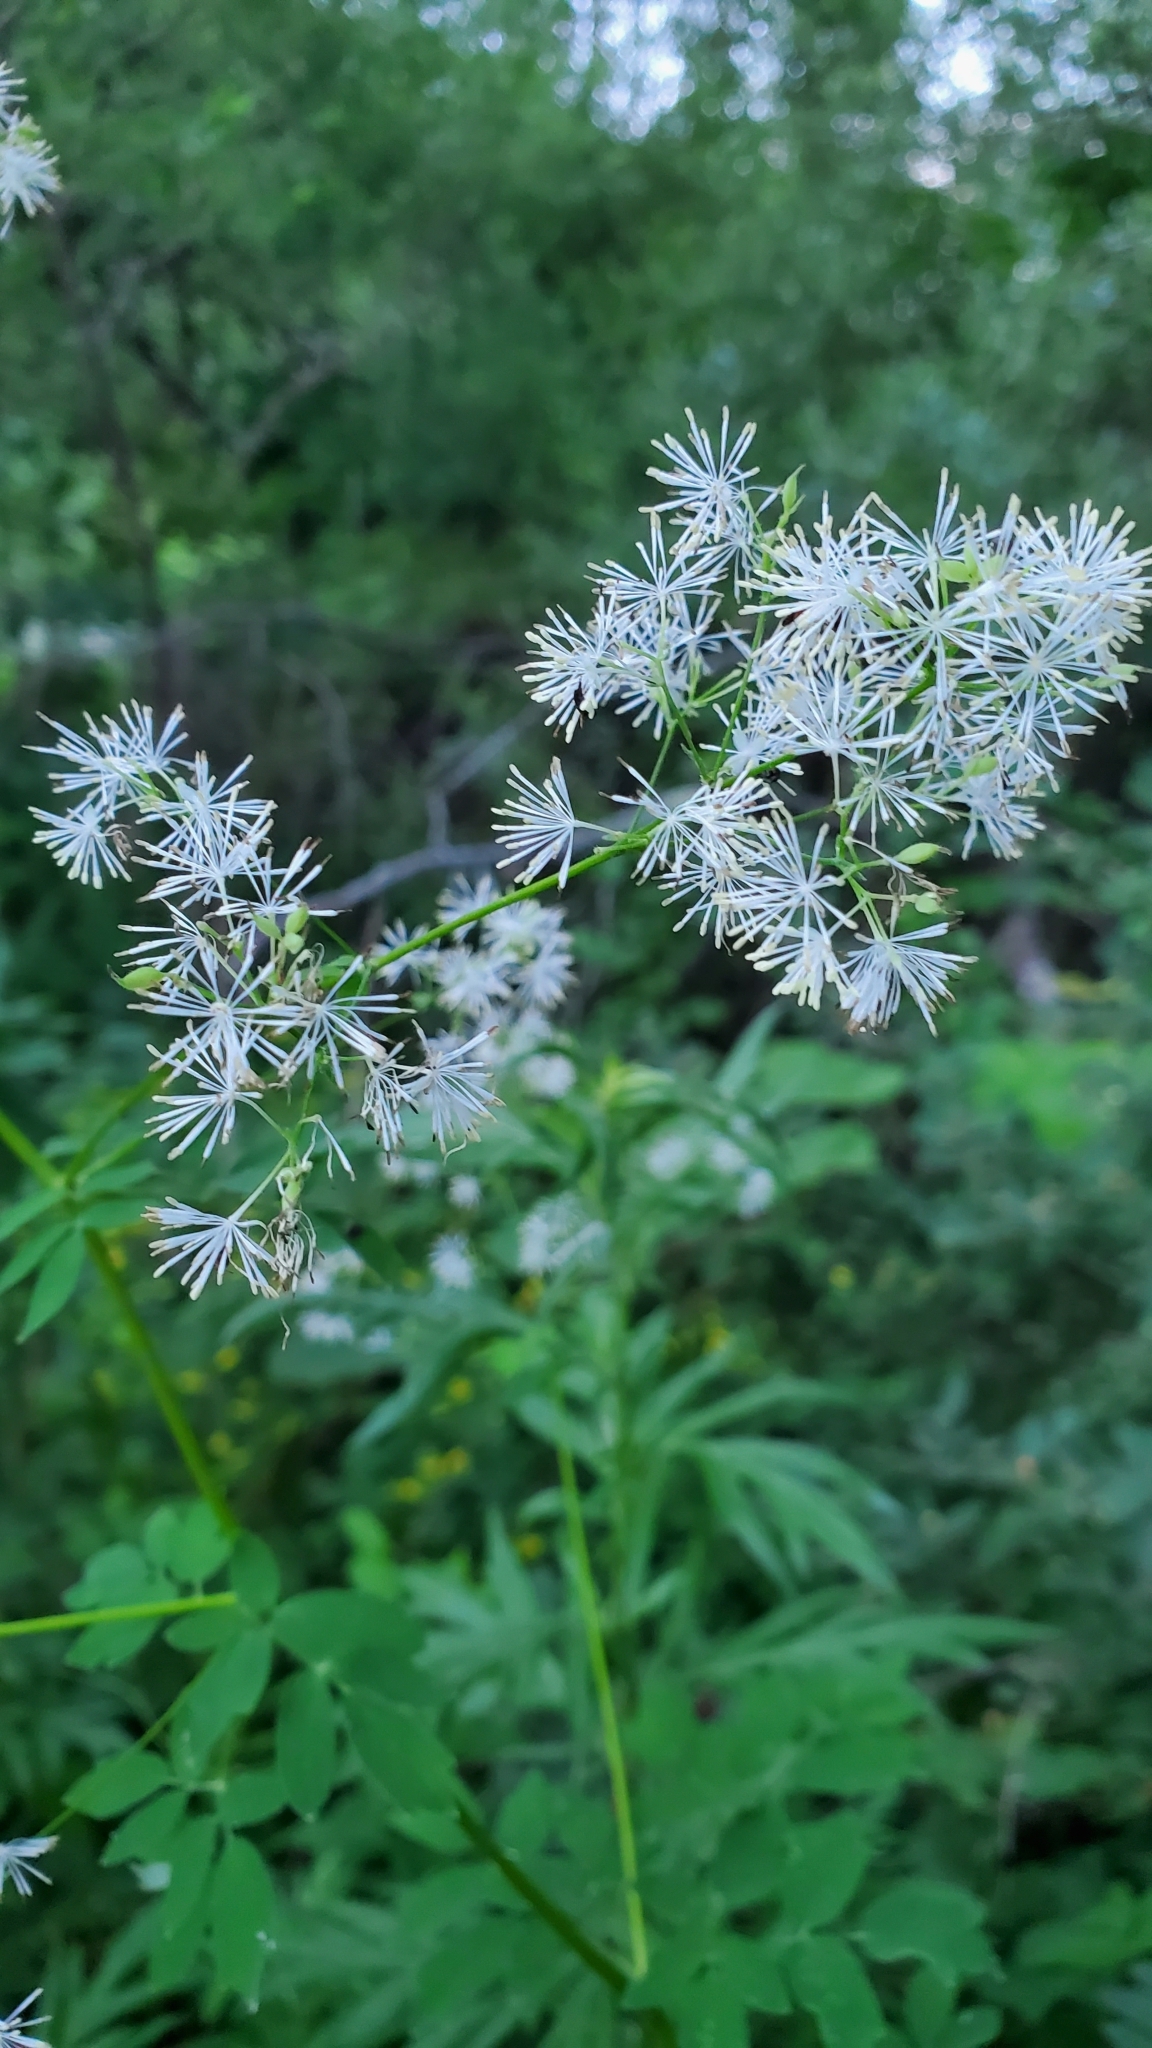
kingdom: Plantae
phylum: Tracheophyta
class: Magnoliopsida
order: Ranunculales
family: Ranunculaceae
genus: Thalictrum
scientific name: Thalictrum pubescens
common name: King-of-the-meadow
